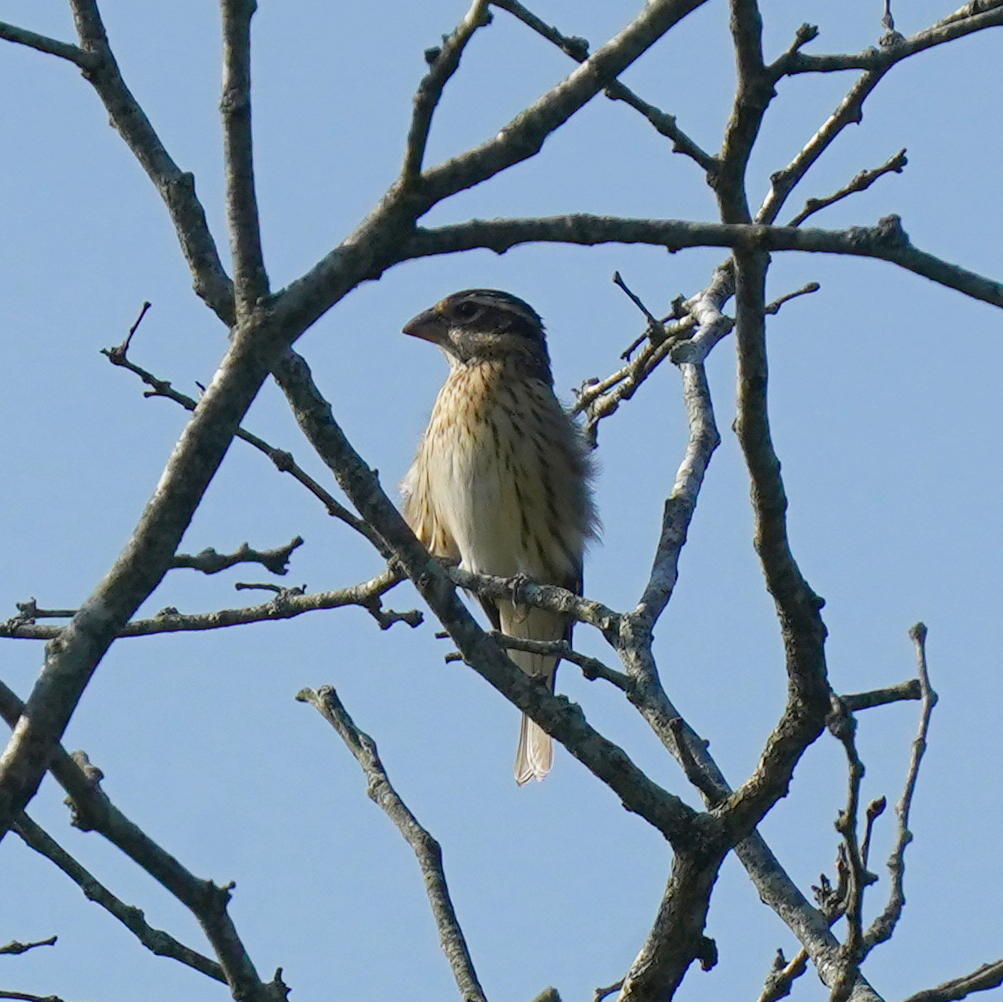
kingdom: Animalia
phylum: Chordata
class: Aves
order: Passeriformes
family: Cardinalidae
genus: Pheucticus
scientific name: Pheucticus ludovicianus
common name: Rose-breasted grosbeak
